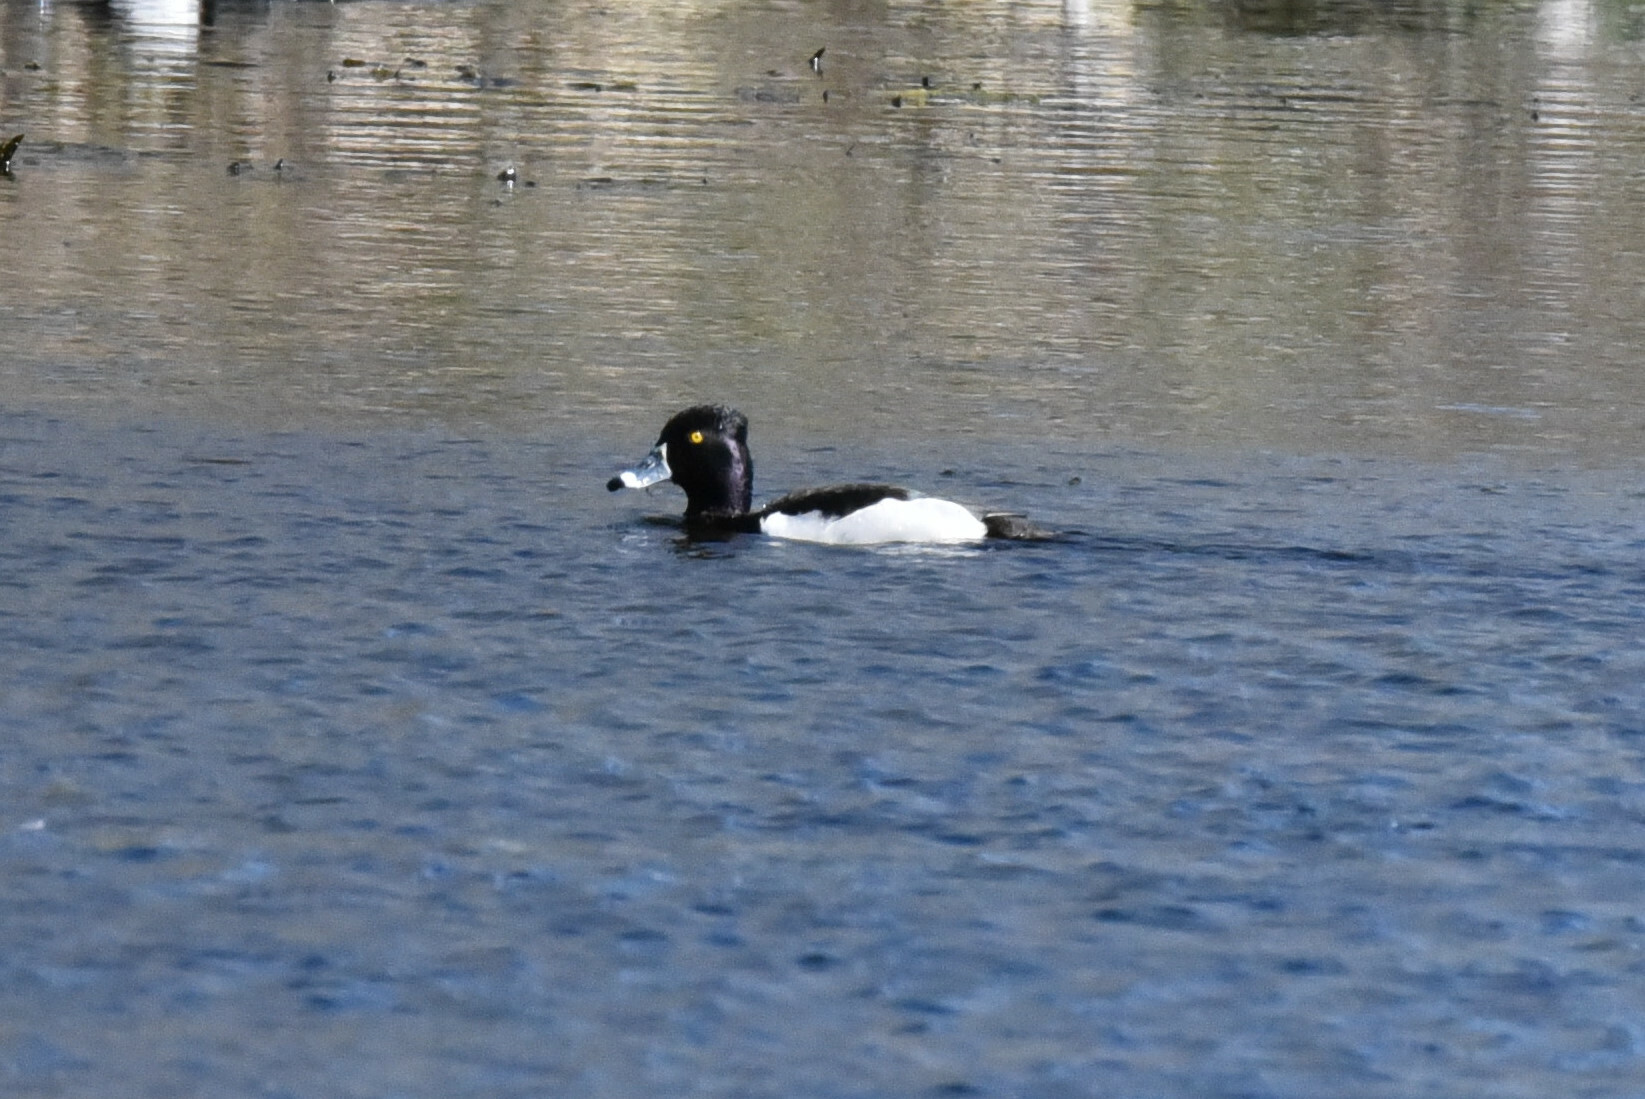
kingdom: Animalia
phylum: Chordata
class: Aves
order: Anseriformes
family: Anatidae
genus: Aythya
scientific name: Aythya collaris
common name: Ring-necked duck
